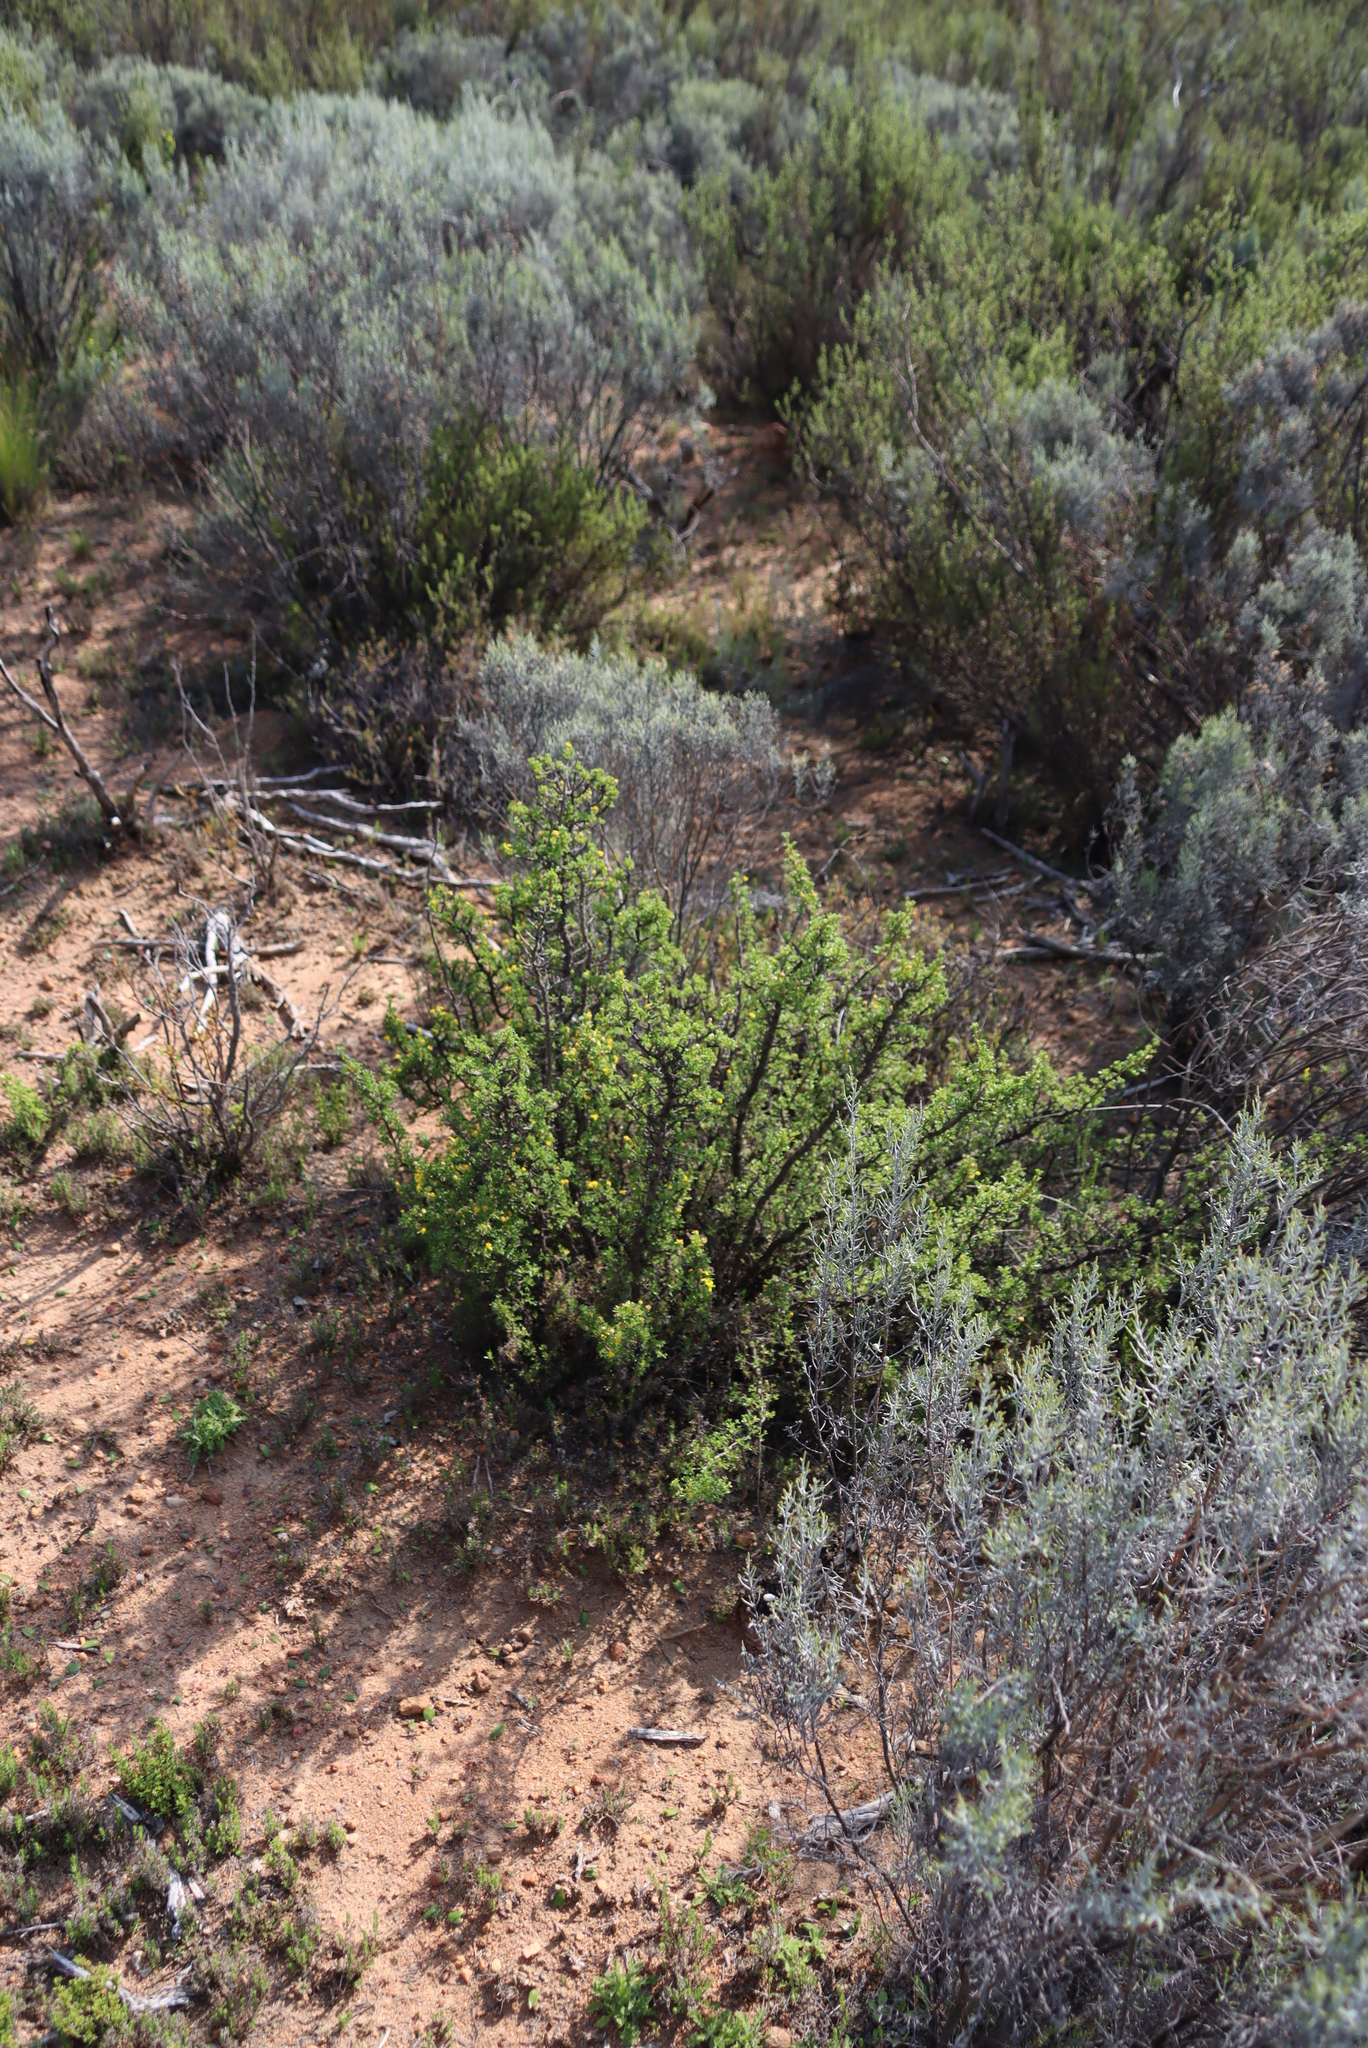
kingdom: Plantae
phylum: Tracheophyta
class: Magnoliopsida
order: Asterales
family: Asteraceae
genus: Euryops
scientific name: Euryops multifidus
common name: Hawk's eye
